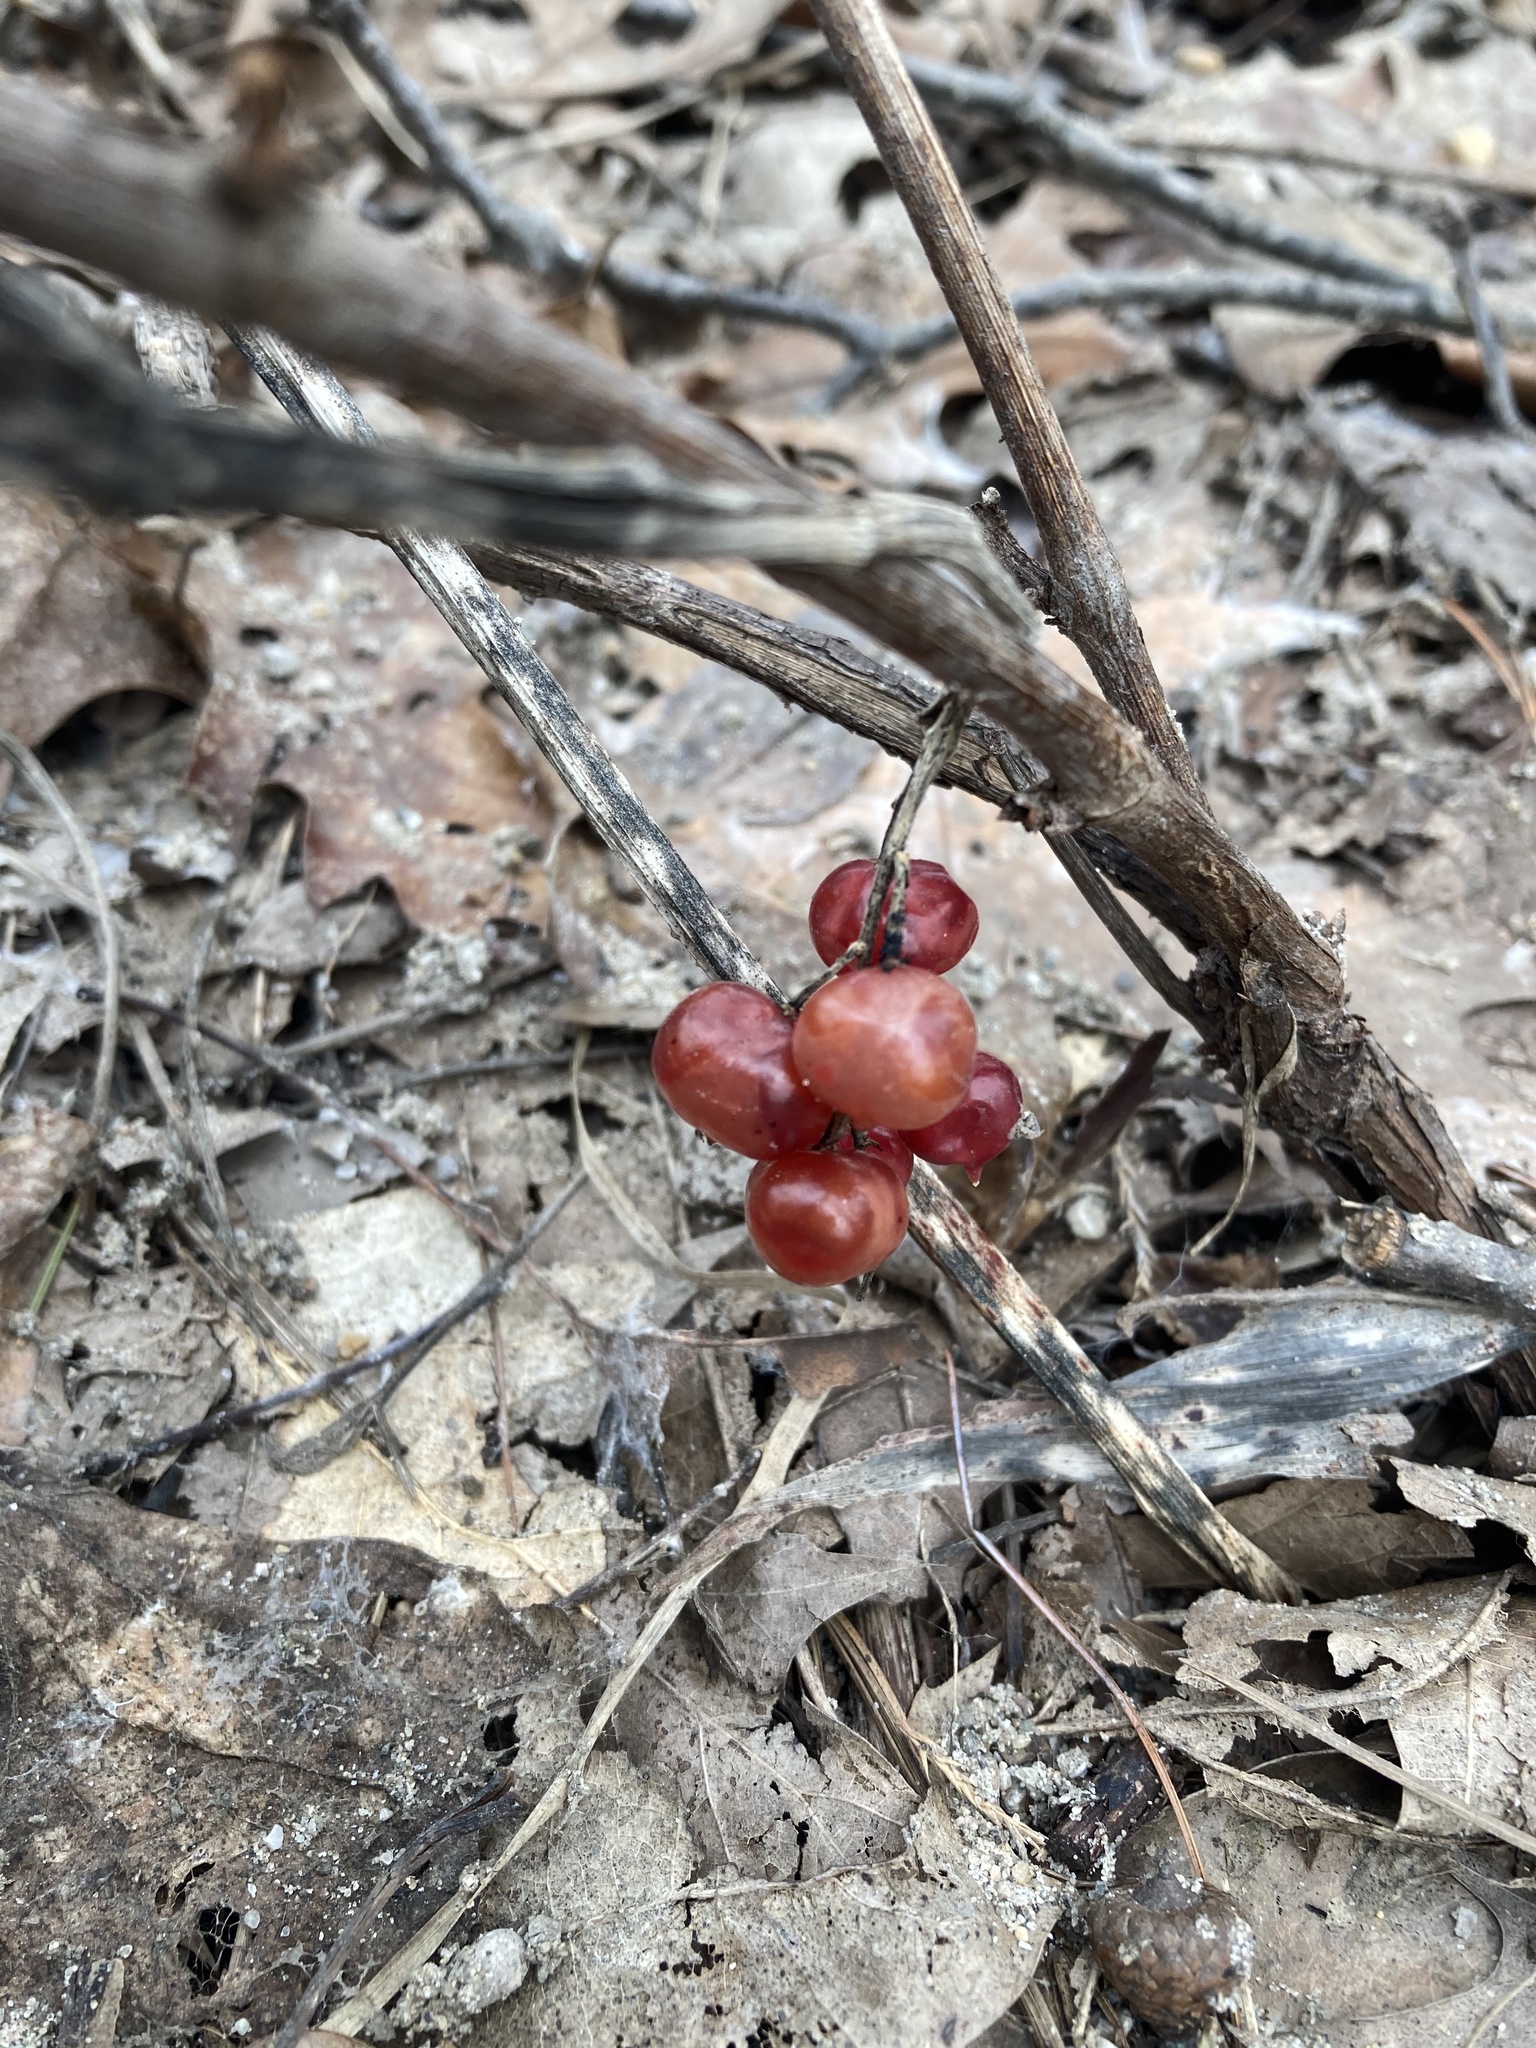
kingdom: Plantae
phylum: Tracheophyta
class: Liliopsida
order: Asparagales
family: Asparagaceae
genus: Maianthemum
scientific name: Maianthemum stellatum
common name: Little false solomon's seal
